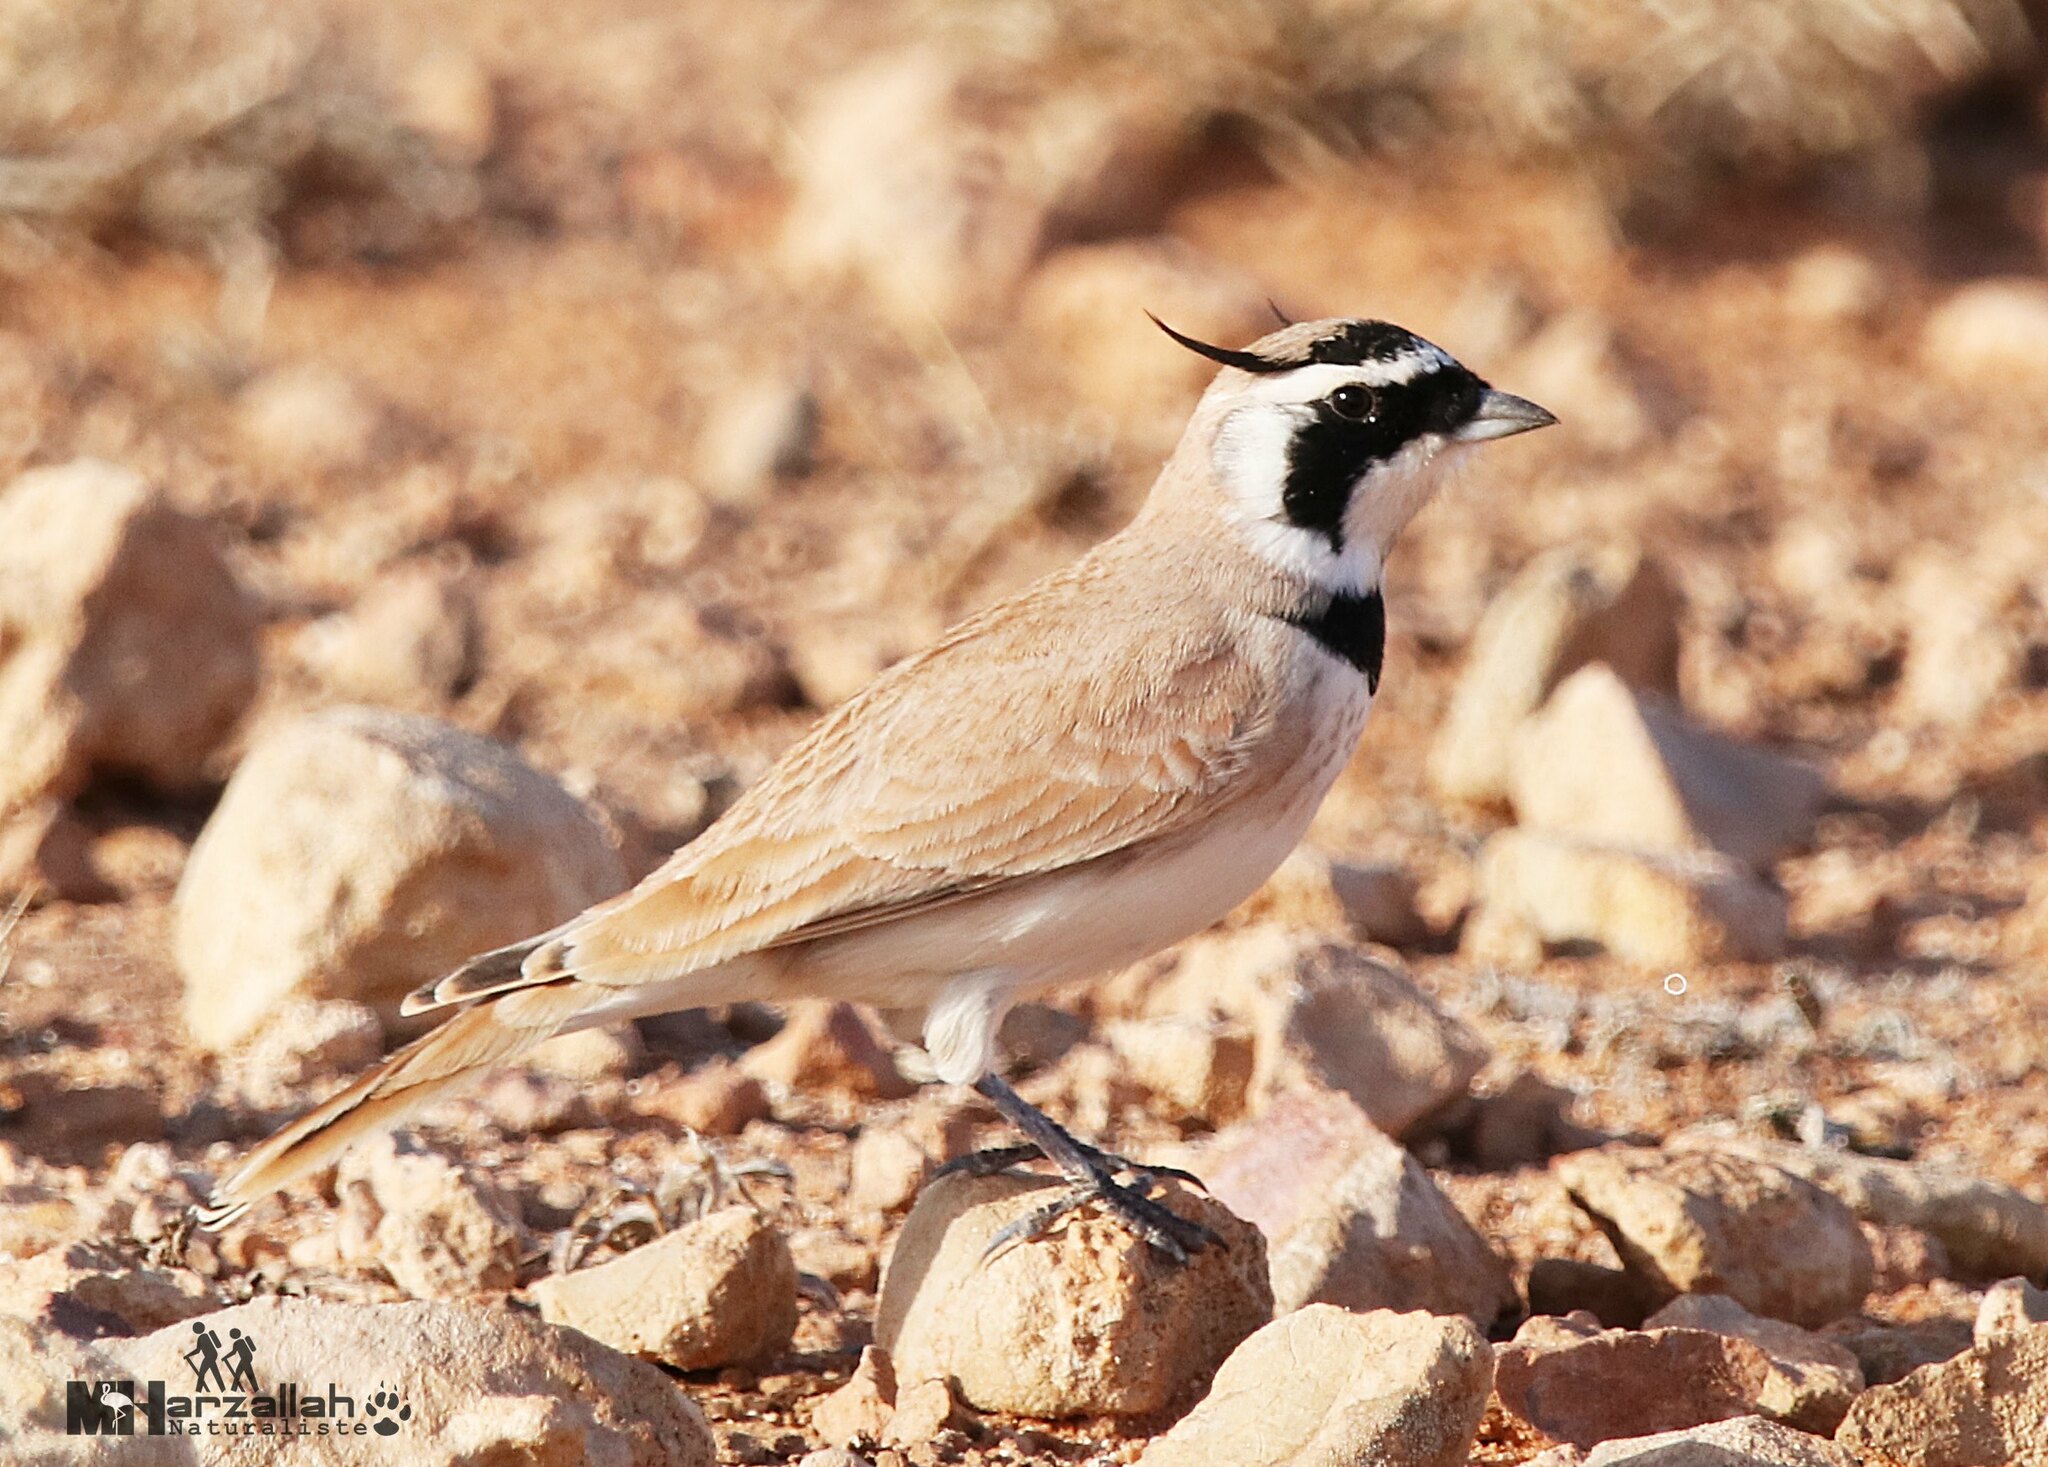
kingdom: Animalia
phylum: Chordata
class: Aves
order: Passeriformes
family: Alaudidae
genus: Eremophila
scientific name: Eremophila bilopha
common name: Temminck's lark
